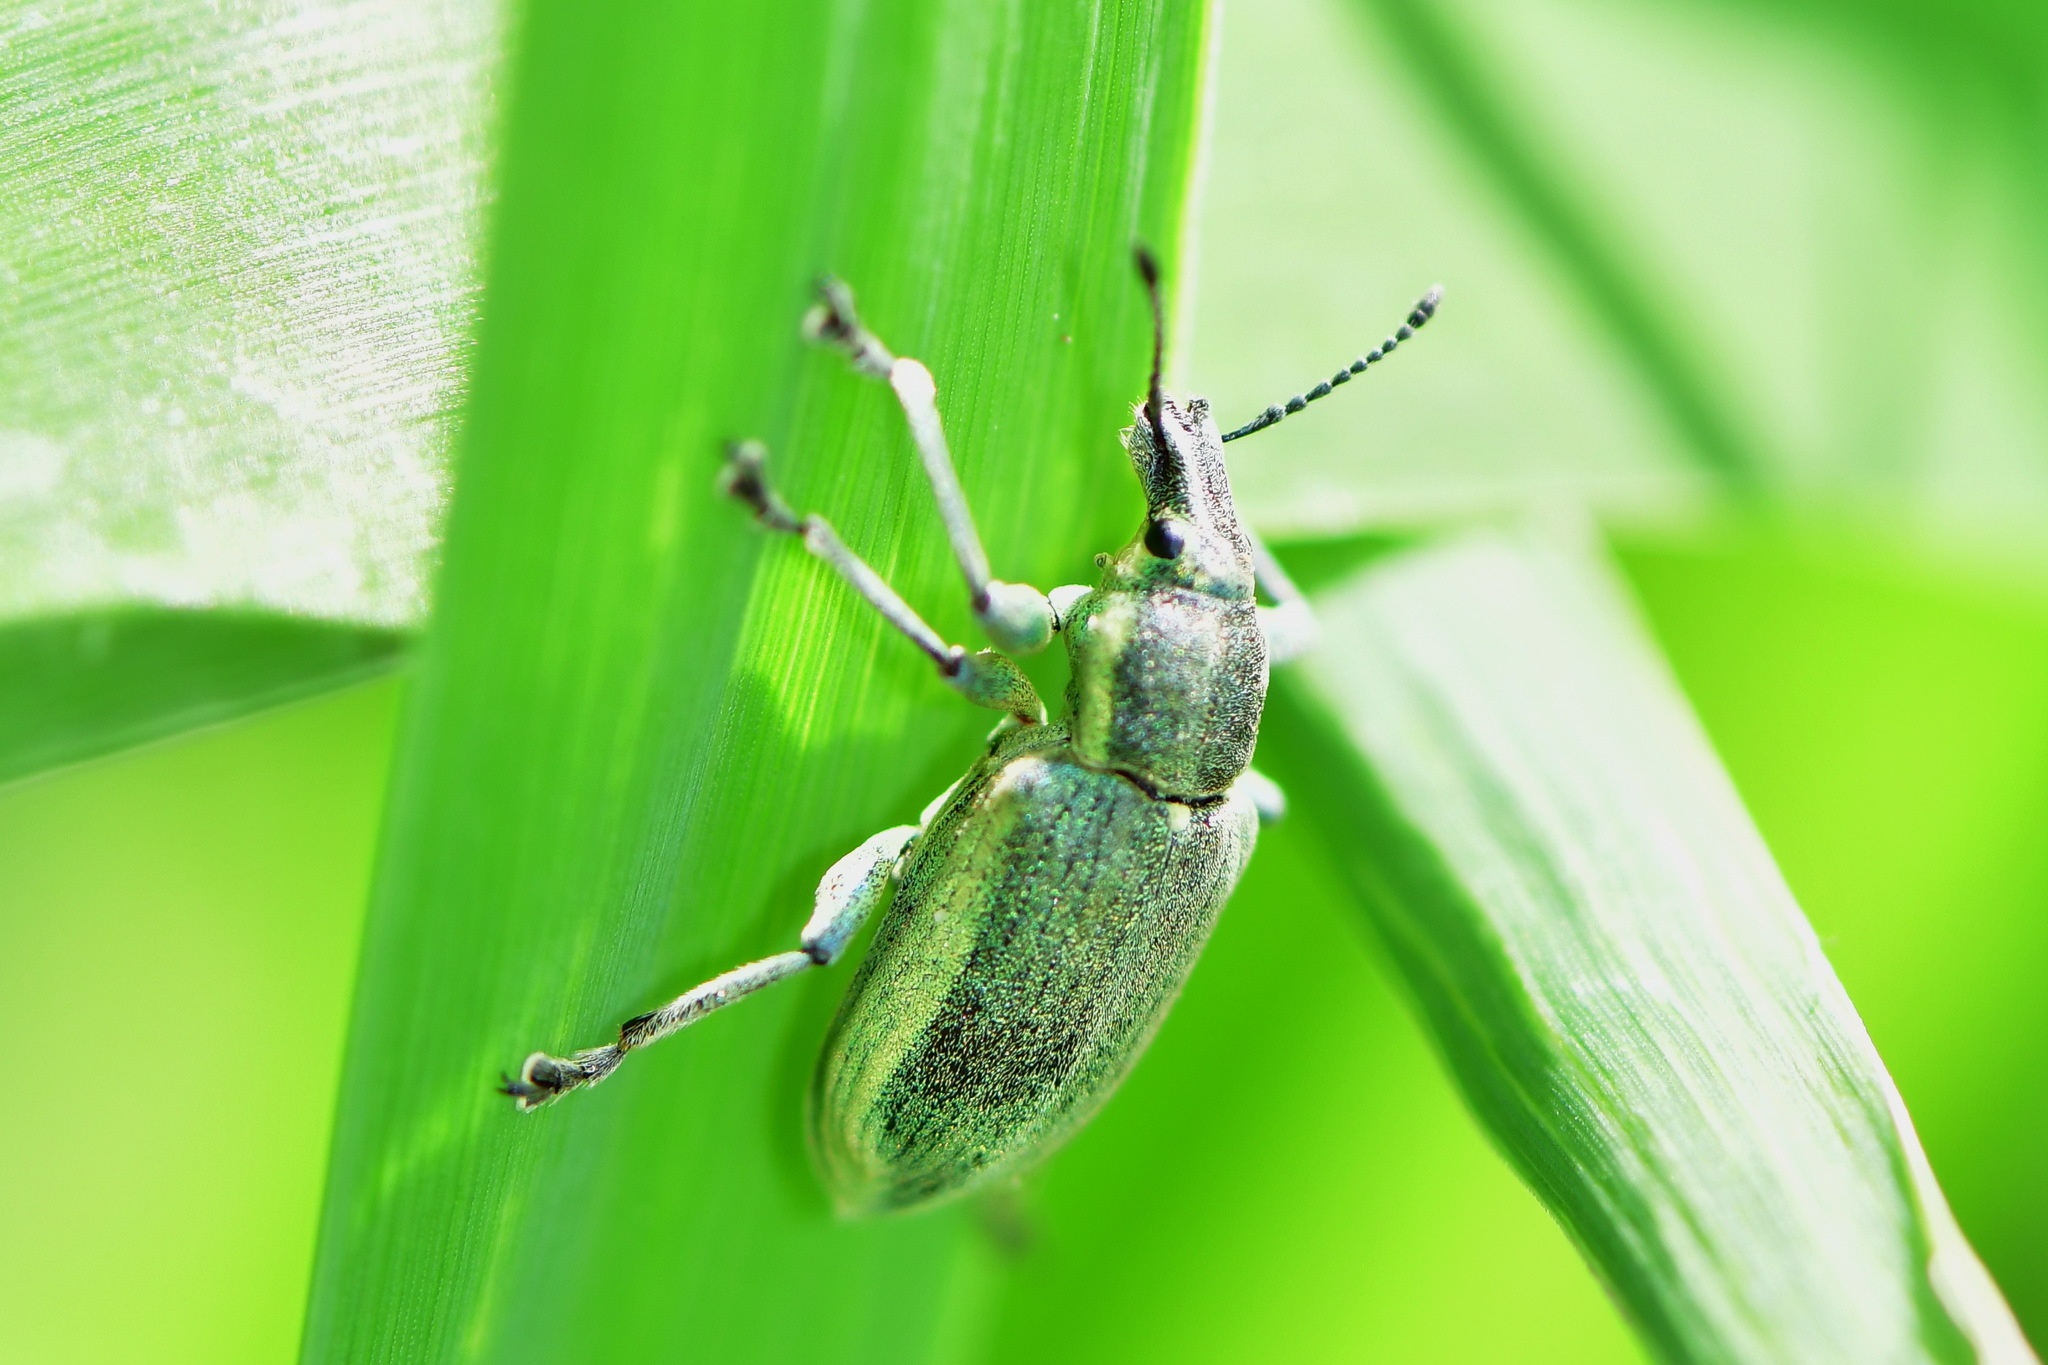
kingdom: Animalia
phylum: Arthropoda
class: Insecta
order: Coleoptera
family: Curculionidae
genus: Chlorophanus
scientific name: Chlorophanus viridis
